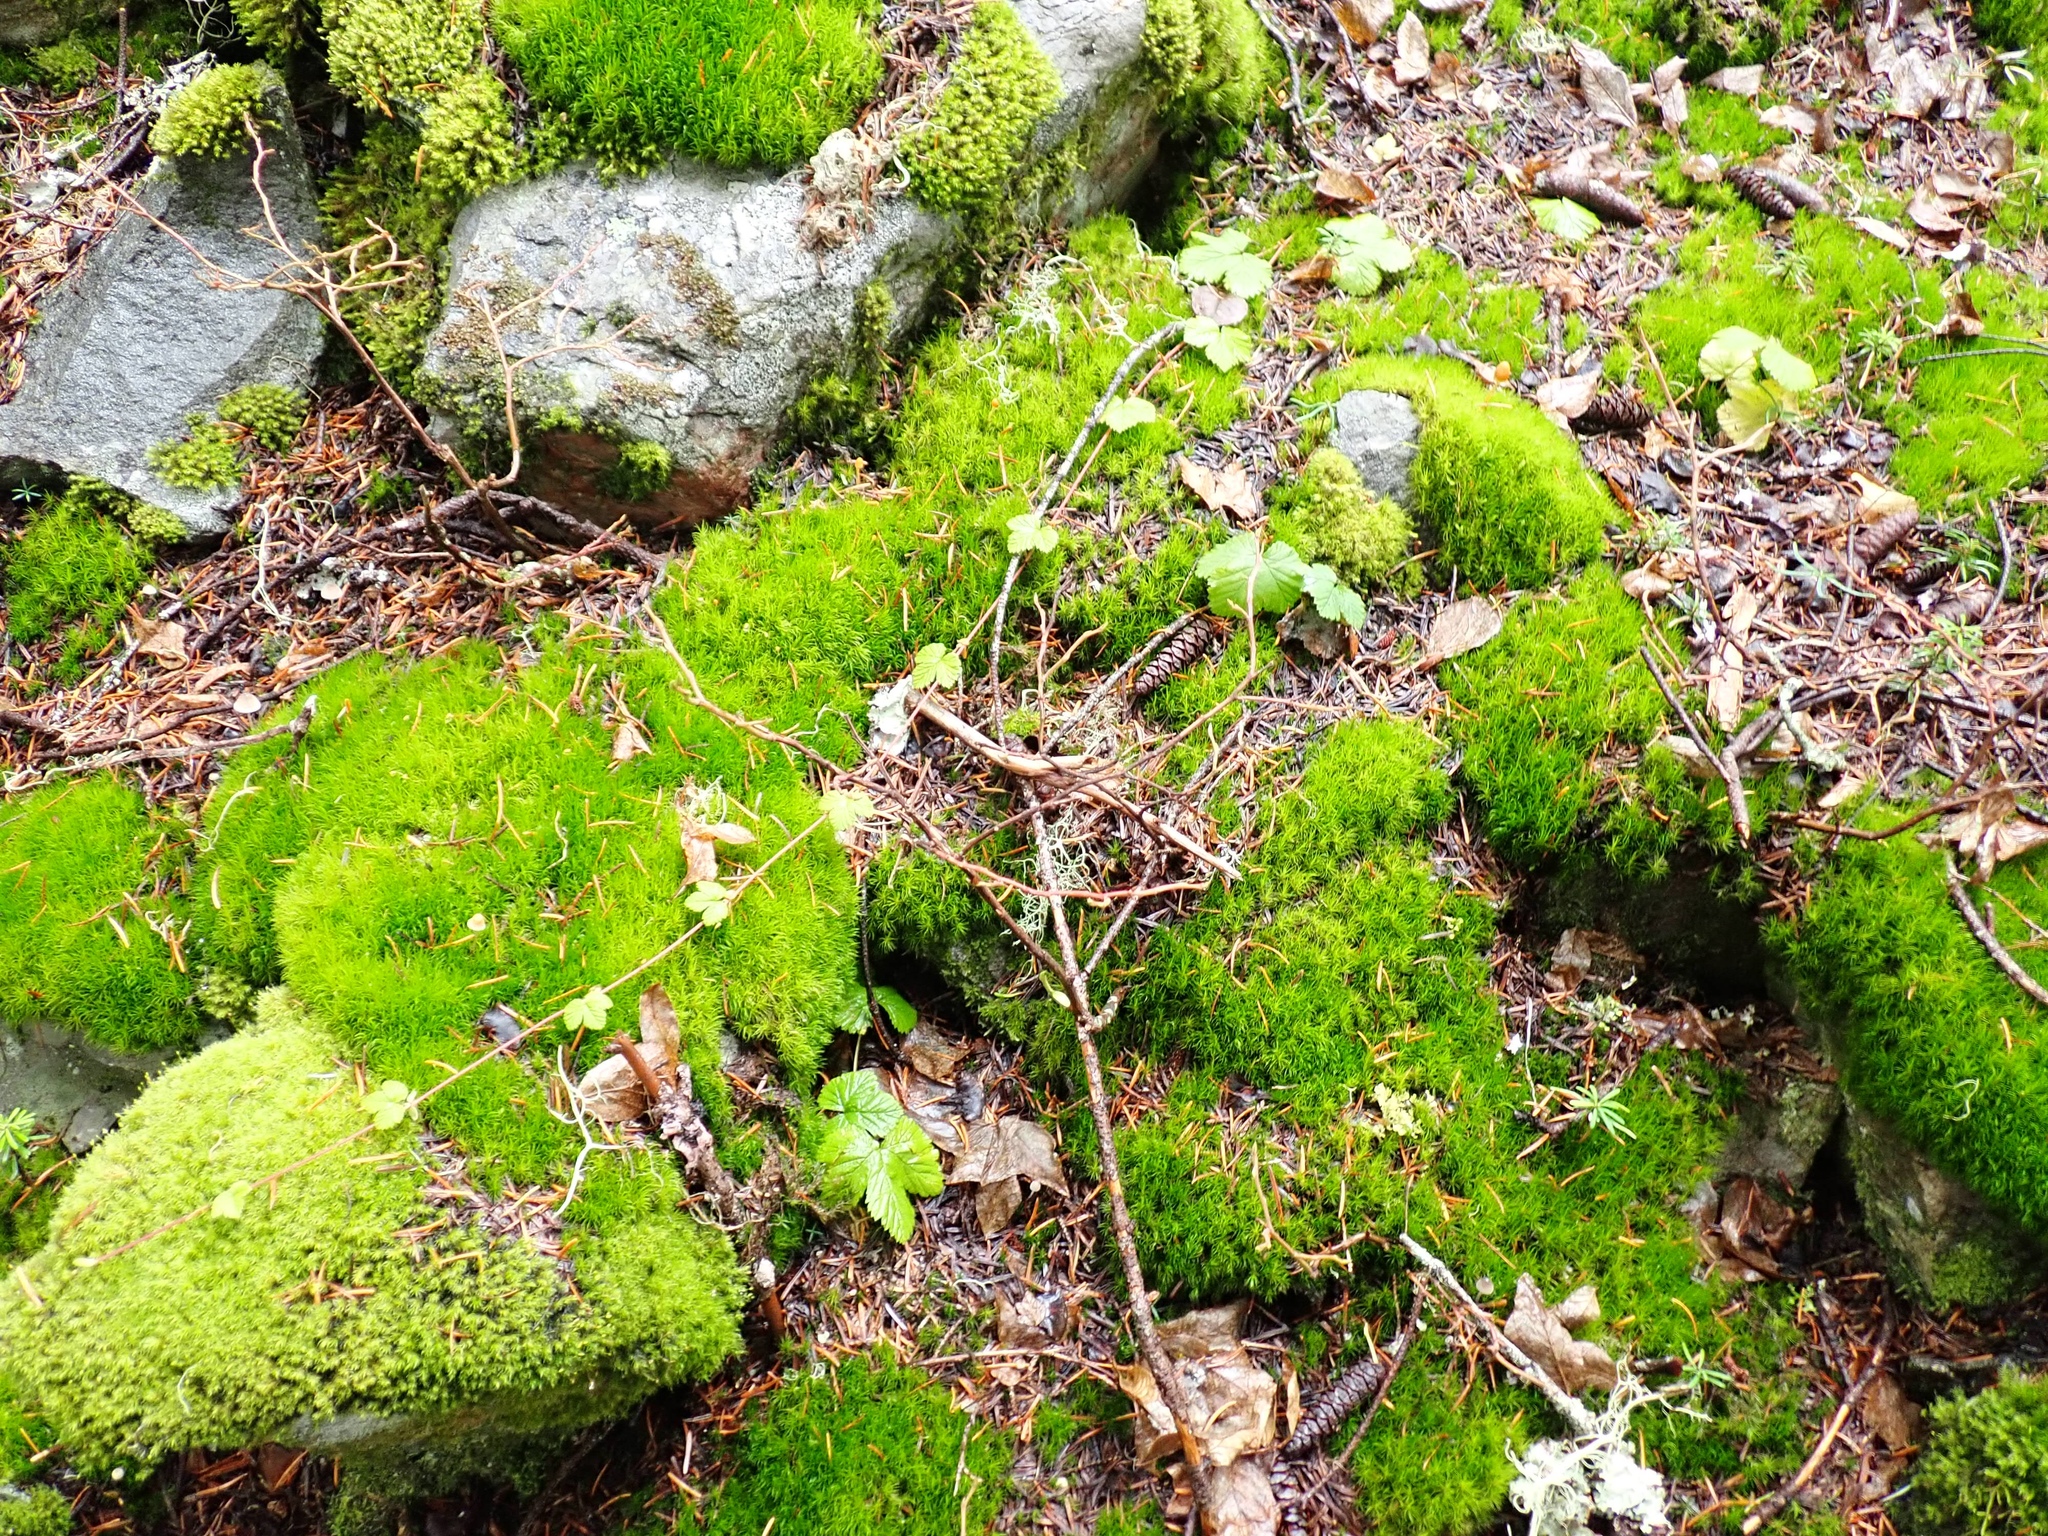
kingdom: Plantae
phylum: Tracheophyta
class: Magnoliopsida
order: Rosales
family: Rosaceae
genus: Rubus
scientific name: Rubus ursinus
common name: Pacific blackberry
